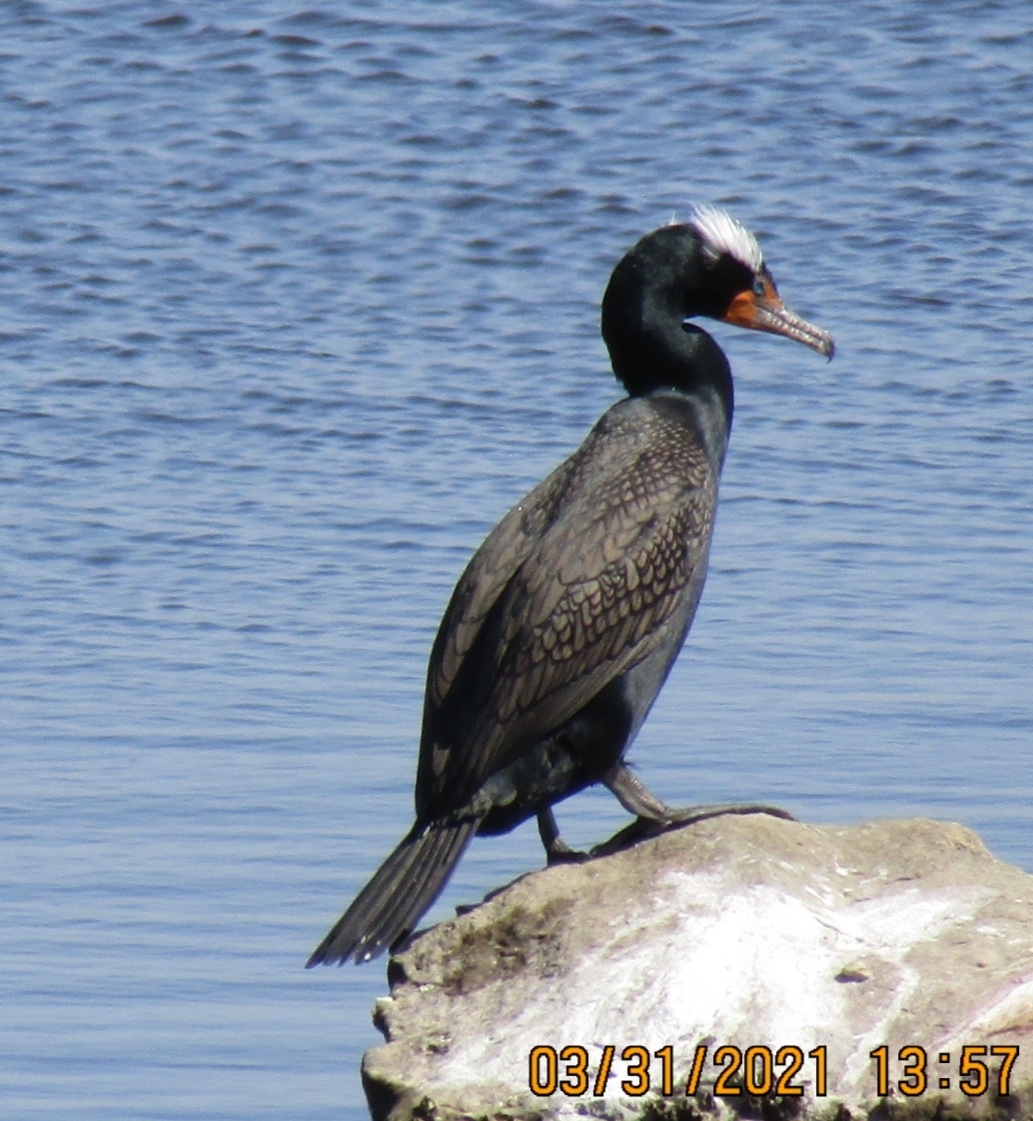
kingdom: Animalia
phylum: Chordata
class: Aves
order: Suliformes
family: Phalacrocoracidae
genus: Phalacrocorax
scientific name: Phalacrocorax auritus
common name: Double-crested cormorant
